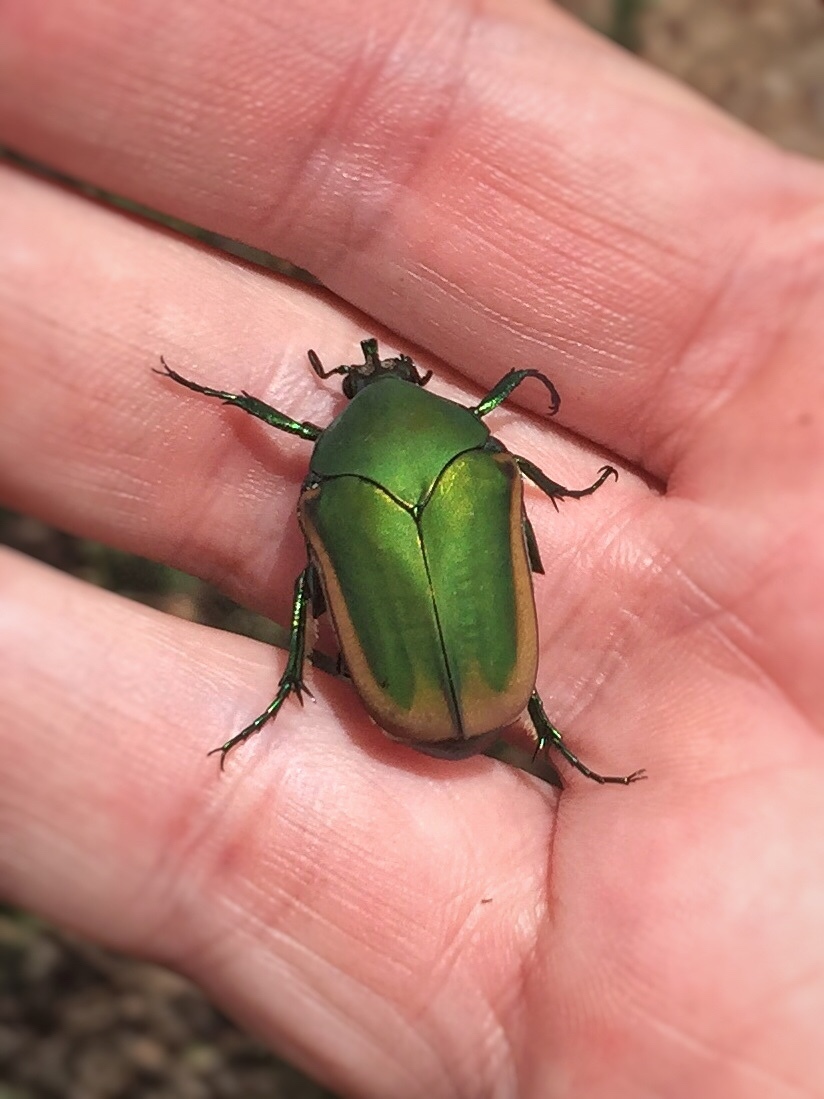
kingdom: Animalia
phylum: Arthropoda
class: Insecta
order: Coleoptera
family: Scarabaeidae
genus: Cotinis
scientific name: Cotinis mutabilis
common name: Figeater beetle
